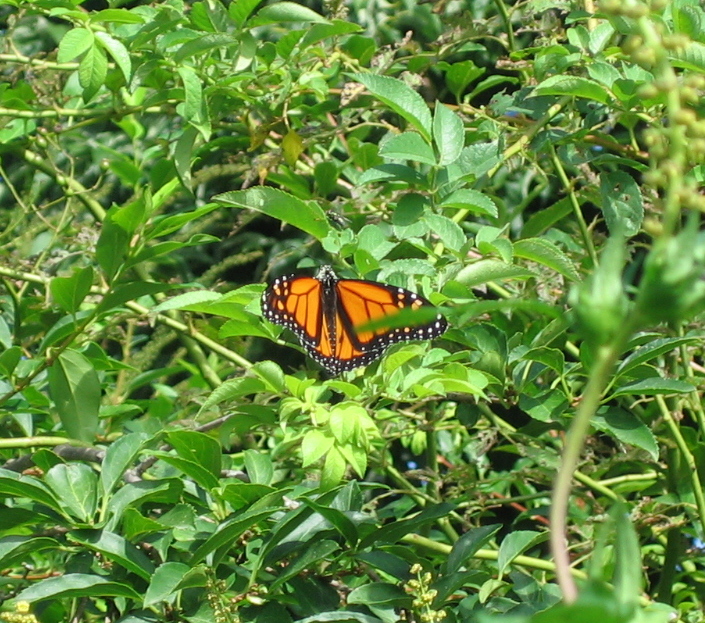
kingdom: Animalia
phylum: Arthropoda
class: Insecta
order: Lepidoptera
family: Nymphalidae
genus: Danaus
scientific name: Danaus plexippus
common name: Monarch
